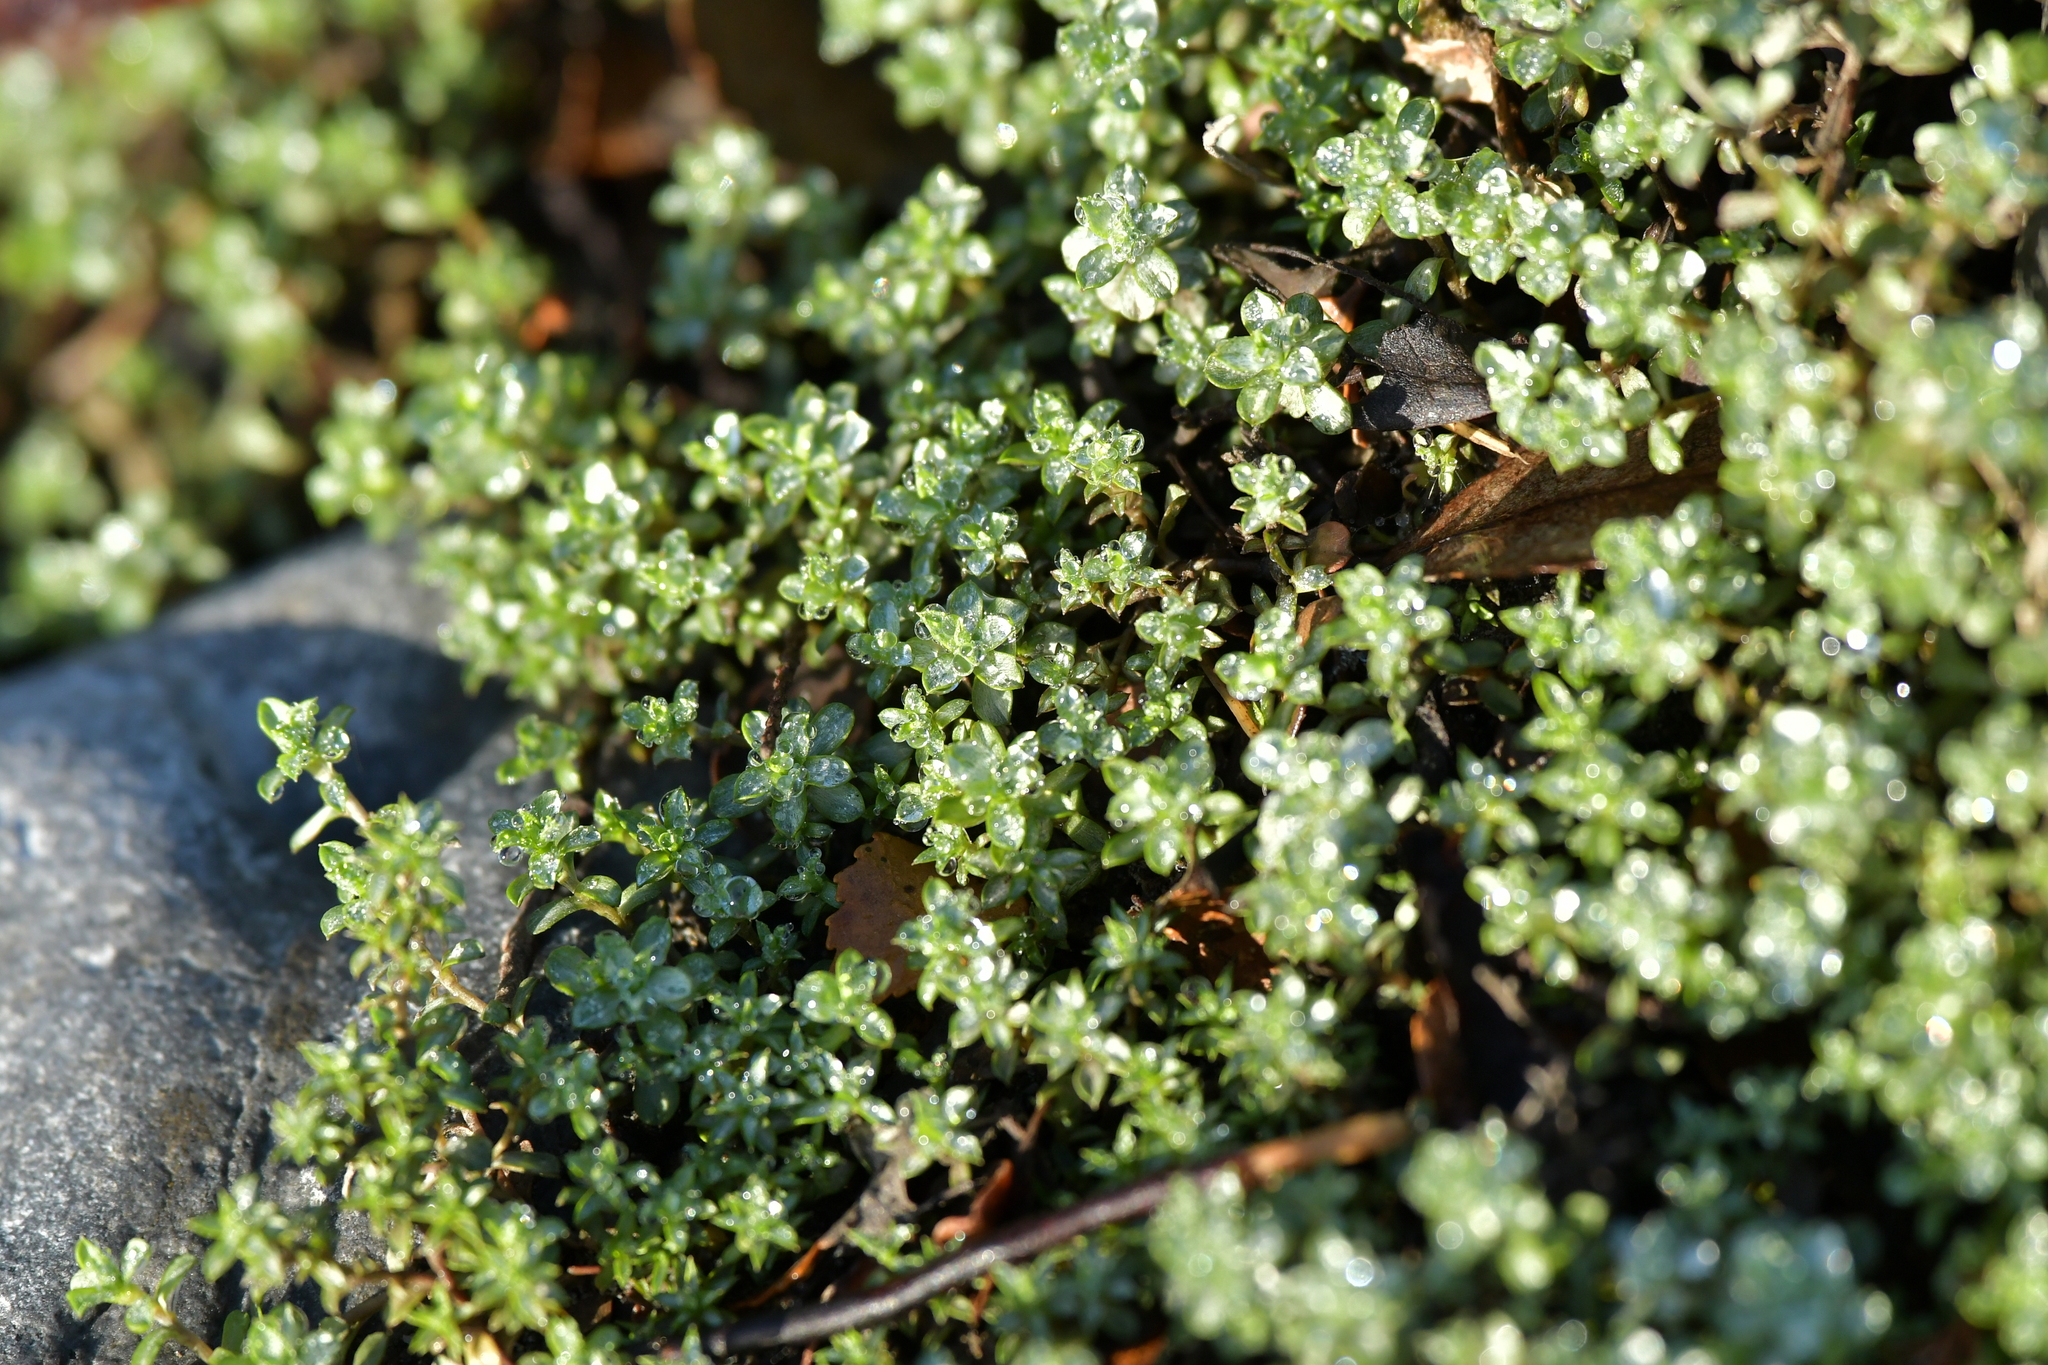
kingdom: Plantae
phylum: Tracheophyta
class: Magnoliopsida
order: Asterales
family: Asteraceae
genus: Raoulia
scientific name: Raoulia tenuicaulis
